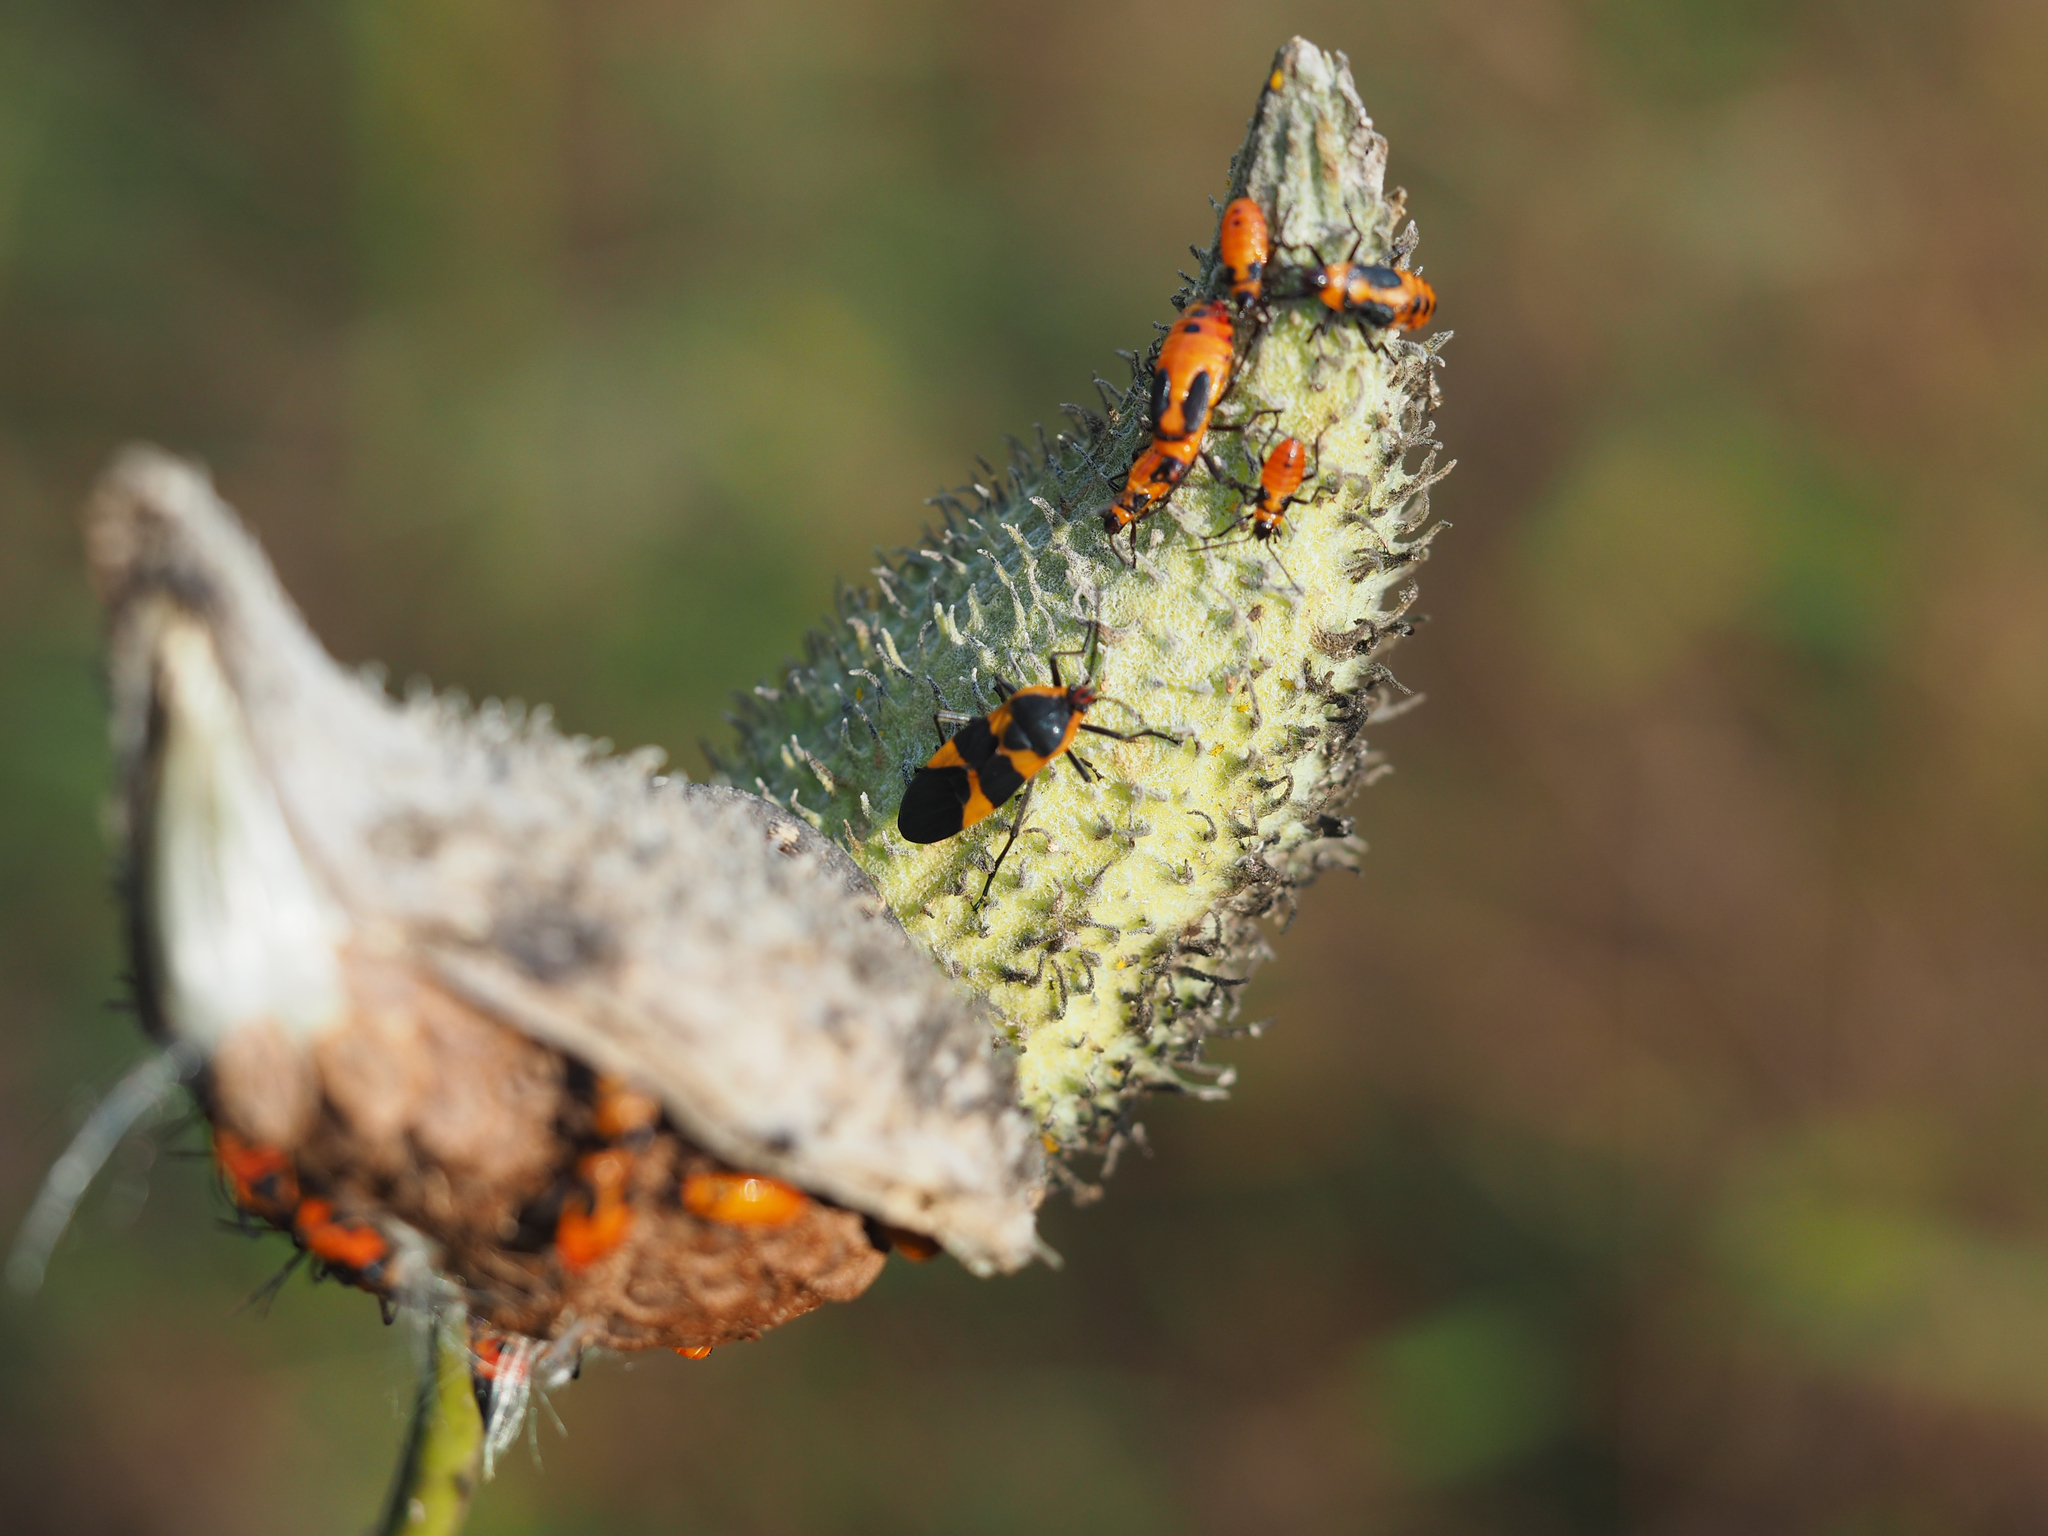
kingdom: Animalia
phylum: Arthropoda
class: Insecta
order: Hemiptera
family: Lygaeidae
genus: Oncopeltus
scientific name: Oncopeltus fasciatus
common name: Large milkweed bug
